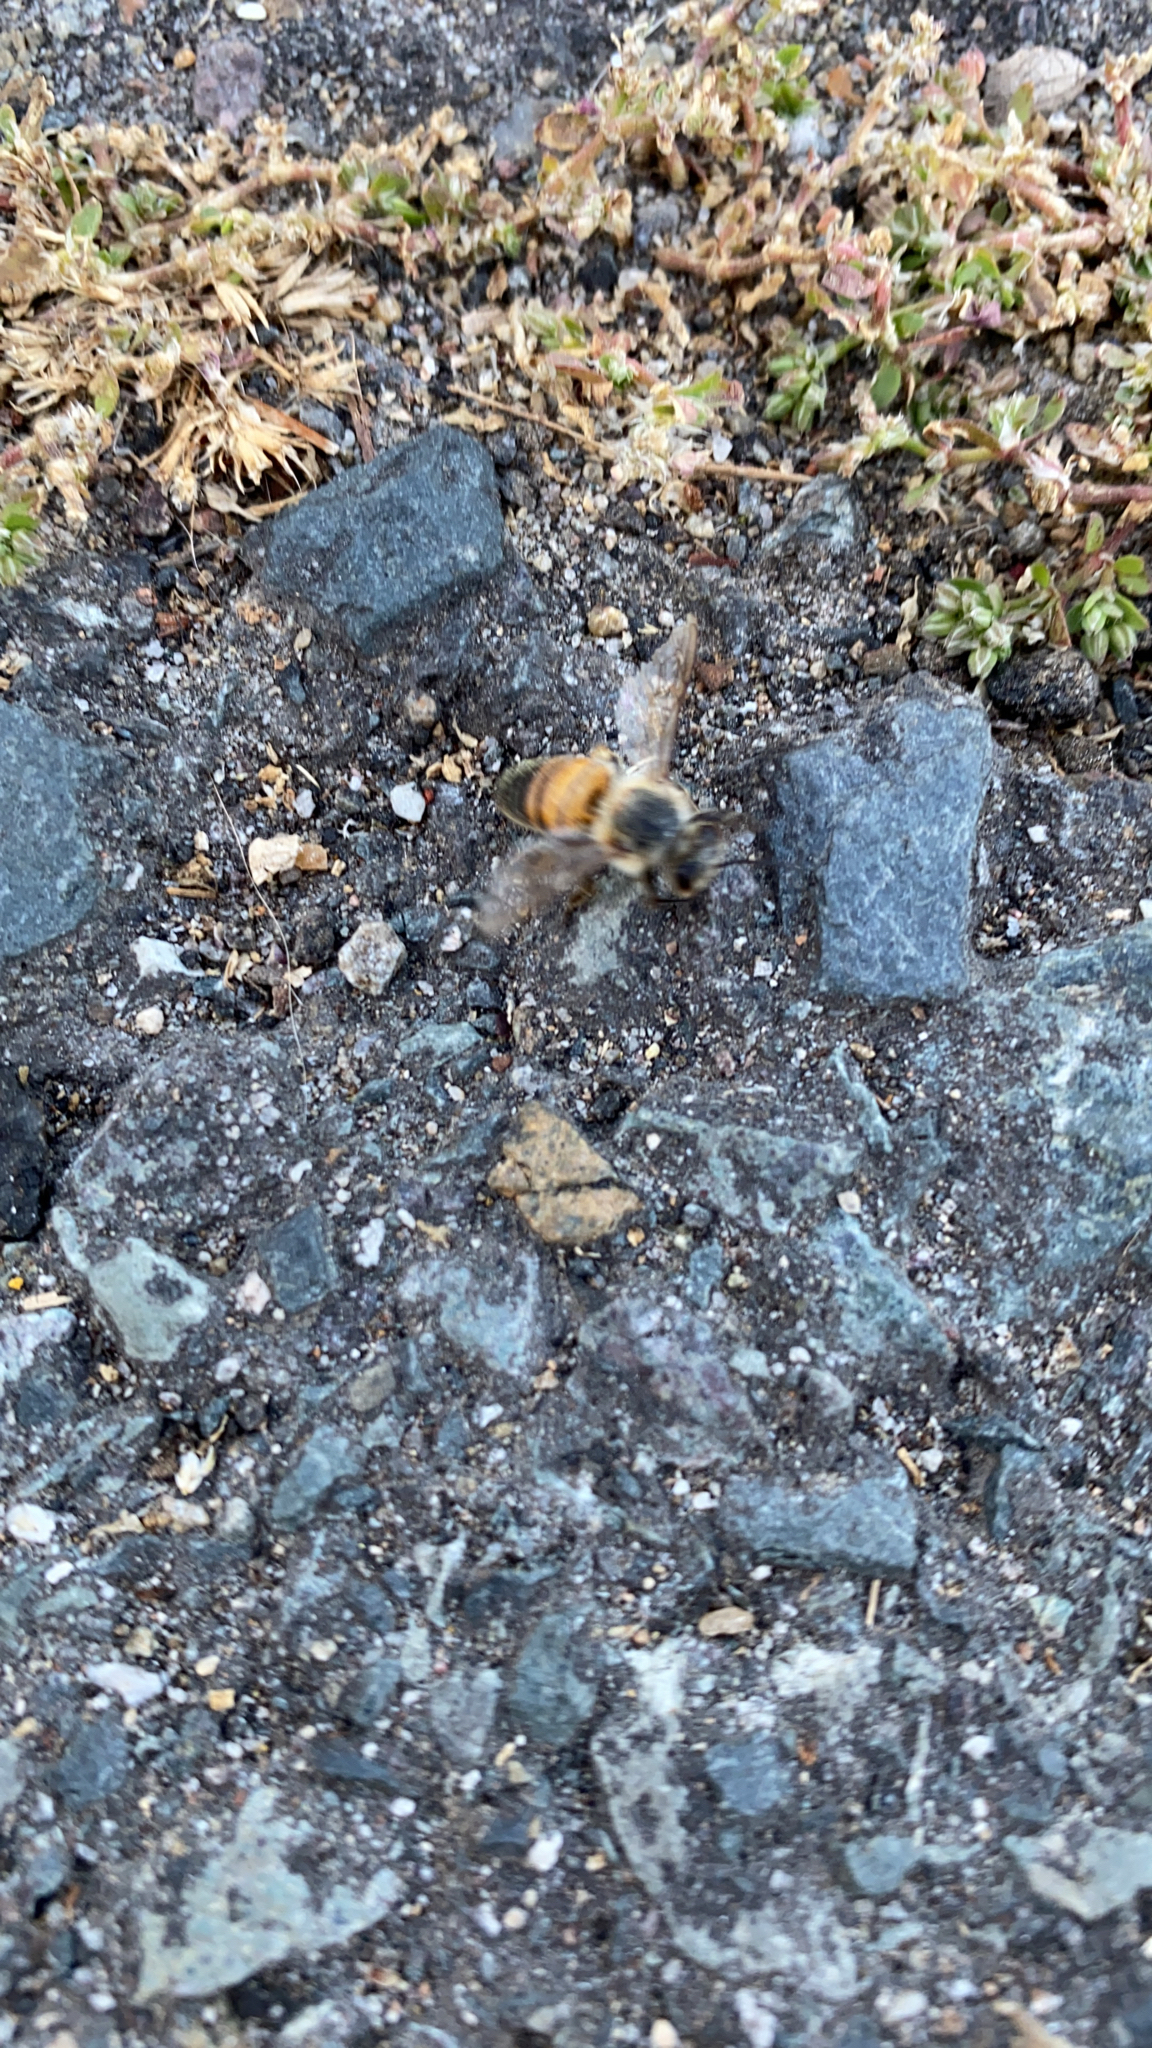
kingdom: Animalia
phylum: Arthropoda
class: Insecta
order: Hymenoptera
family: Apidae
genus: Apis
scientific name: Apis mellifera
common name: Honey bee
